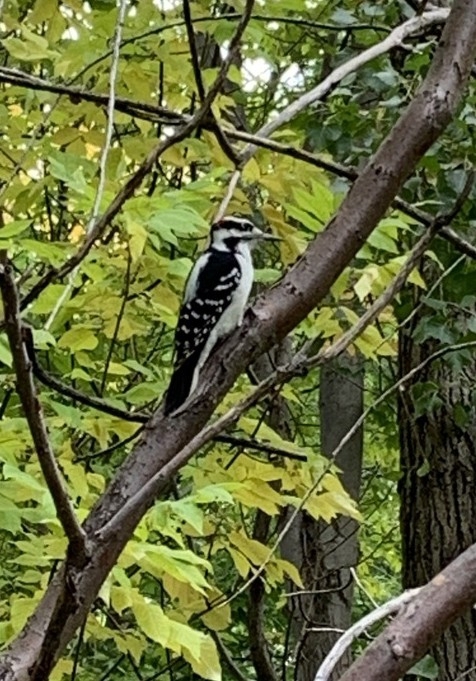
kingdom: Animalia
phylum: Chordata
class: Aves
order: Piciformes
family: Picidae
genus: Leuconotopicus
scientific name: Leuconotopicus villosus
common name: Hairy woodpecker
